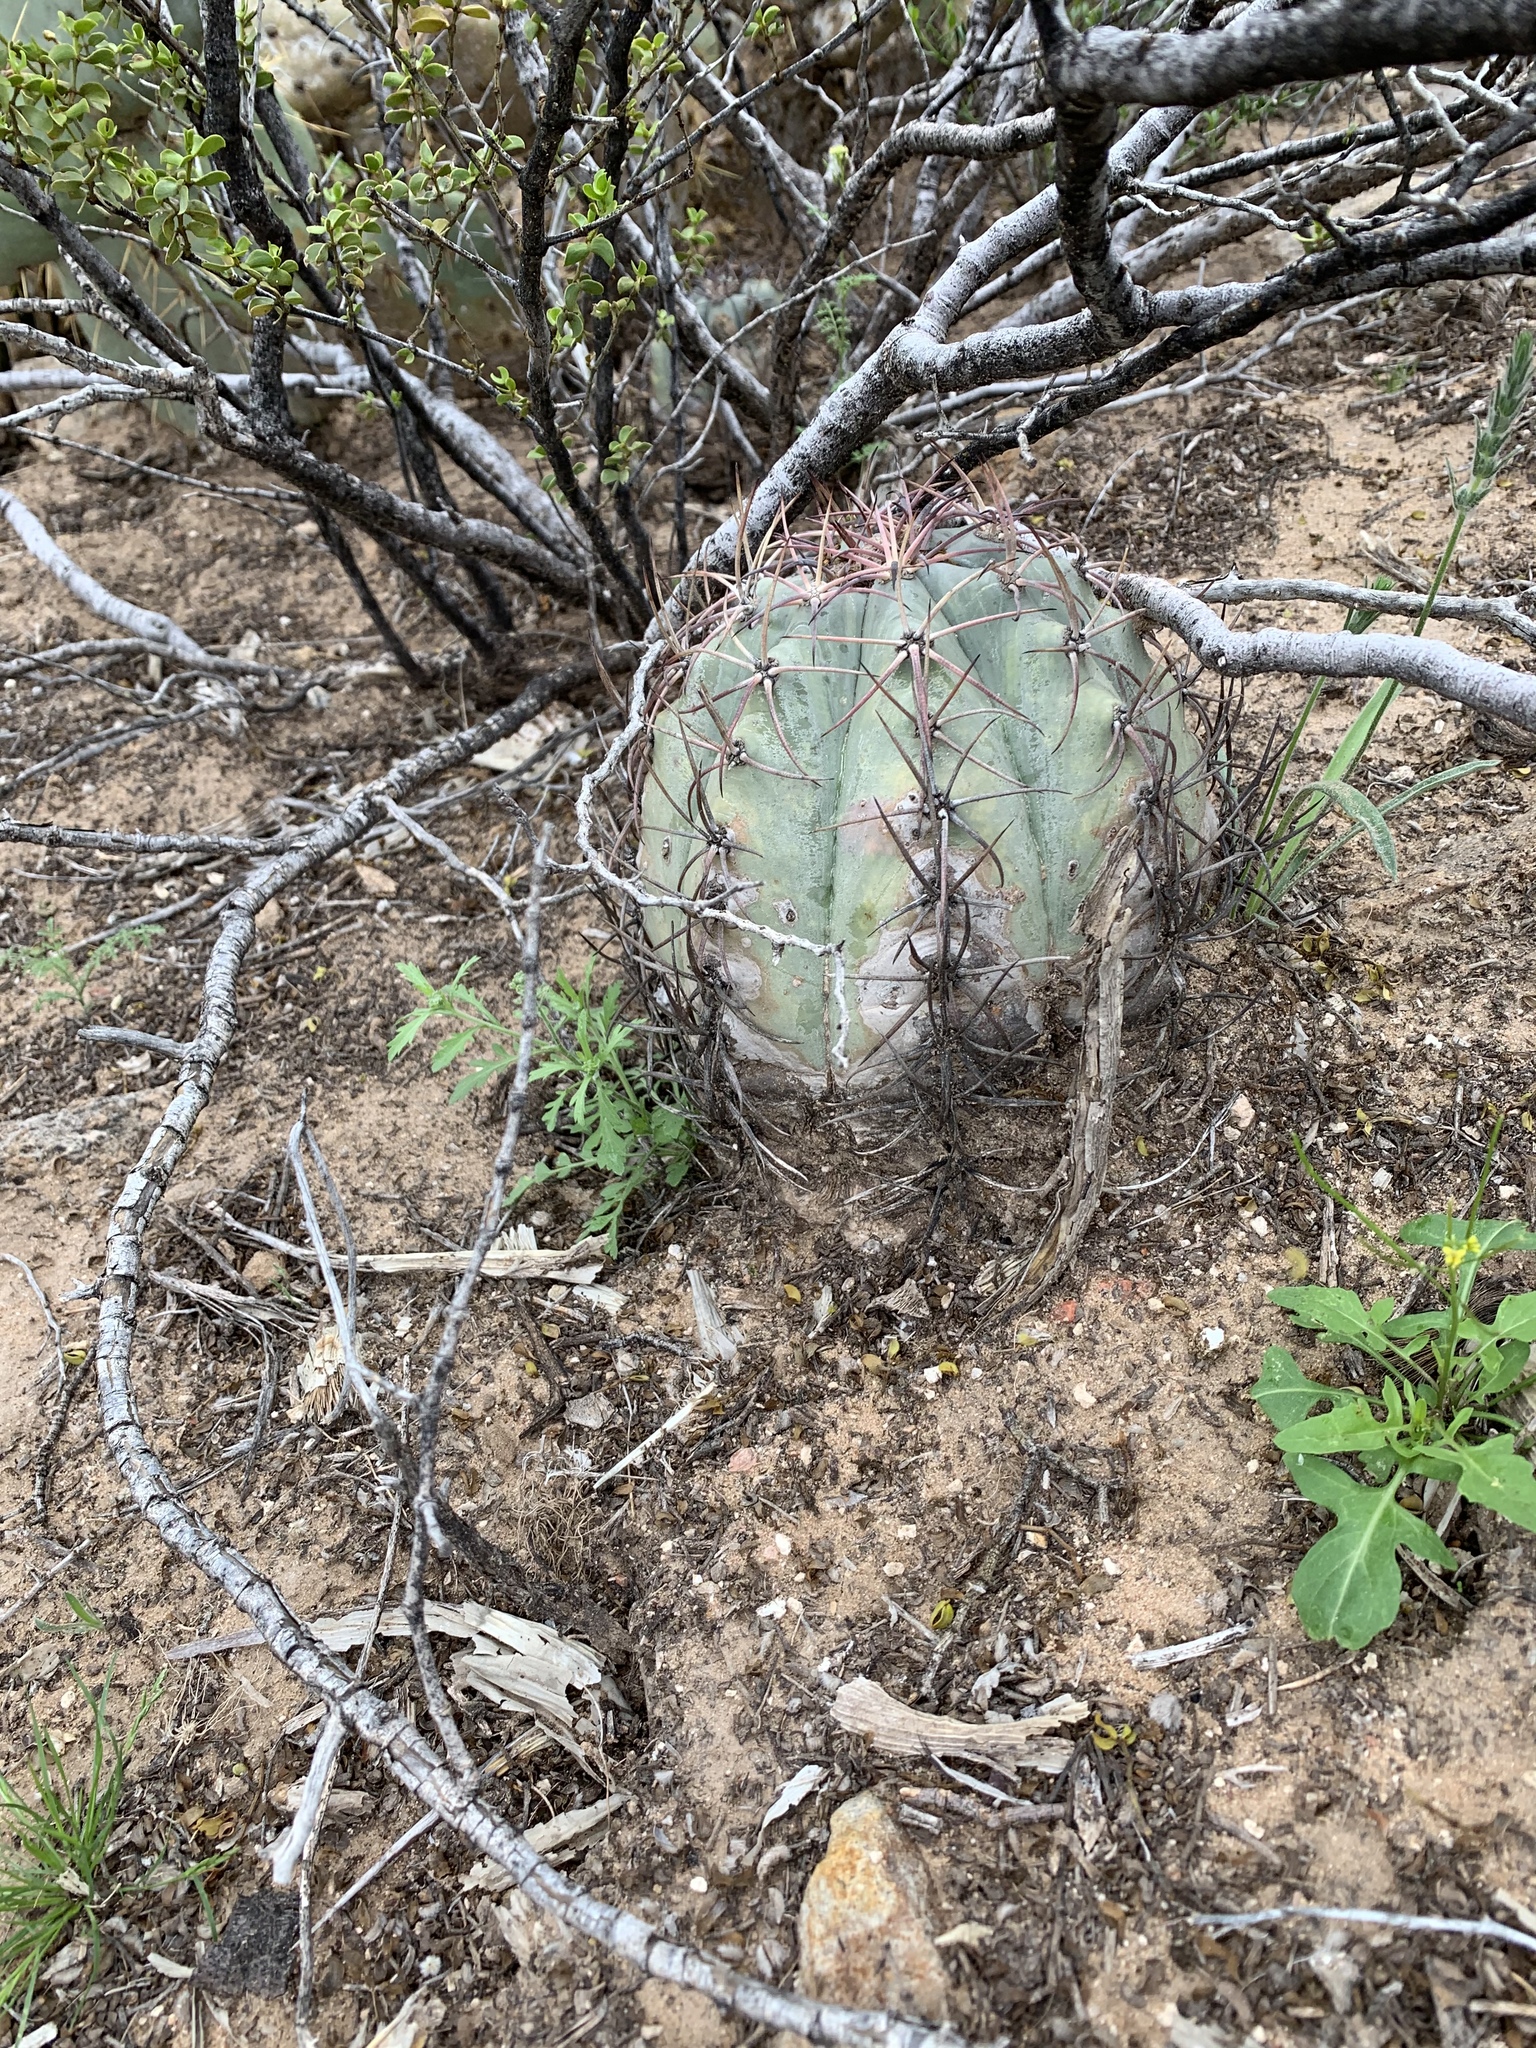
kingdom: Plantae
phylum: Tracheophyta
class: Magnoliopsida
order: Caryophyllales
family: Cactaceae
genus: Echinocactus
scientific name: Echinocactus horizonthalonius
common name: Devilshead
